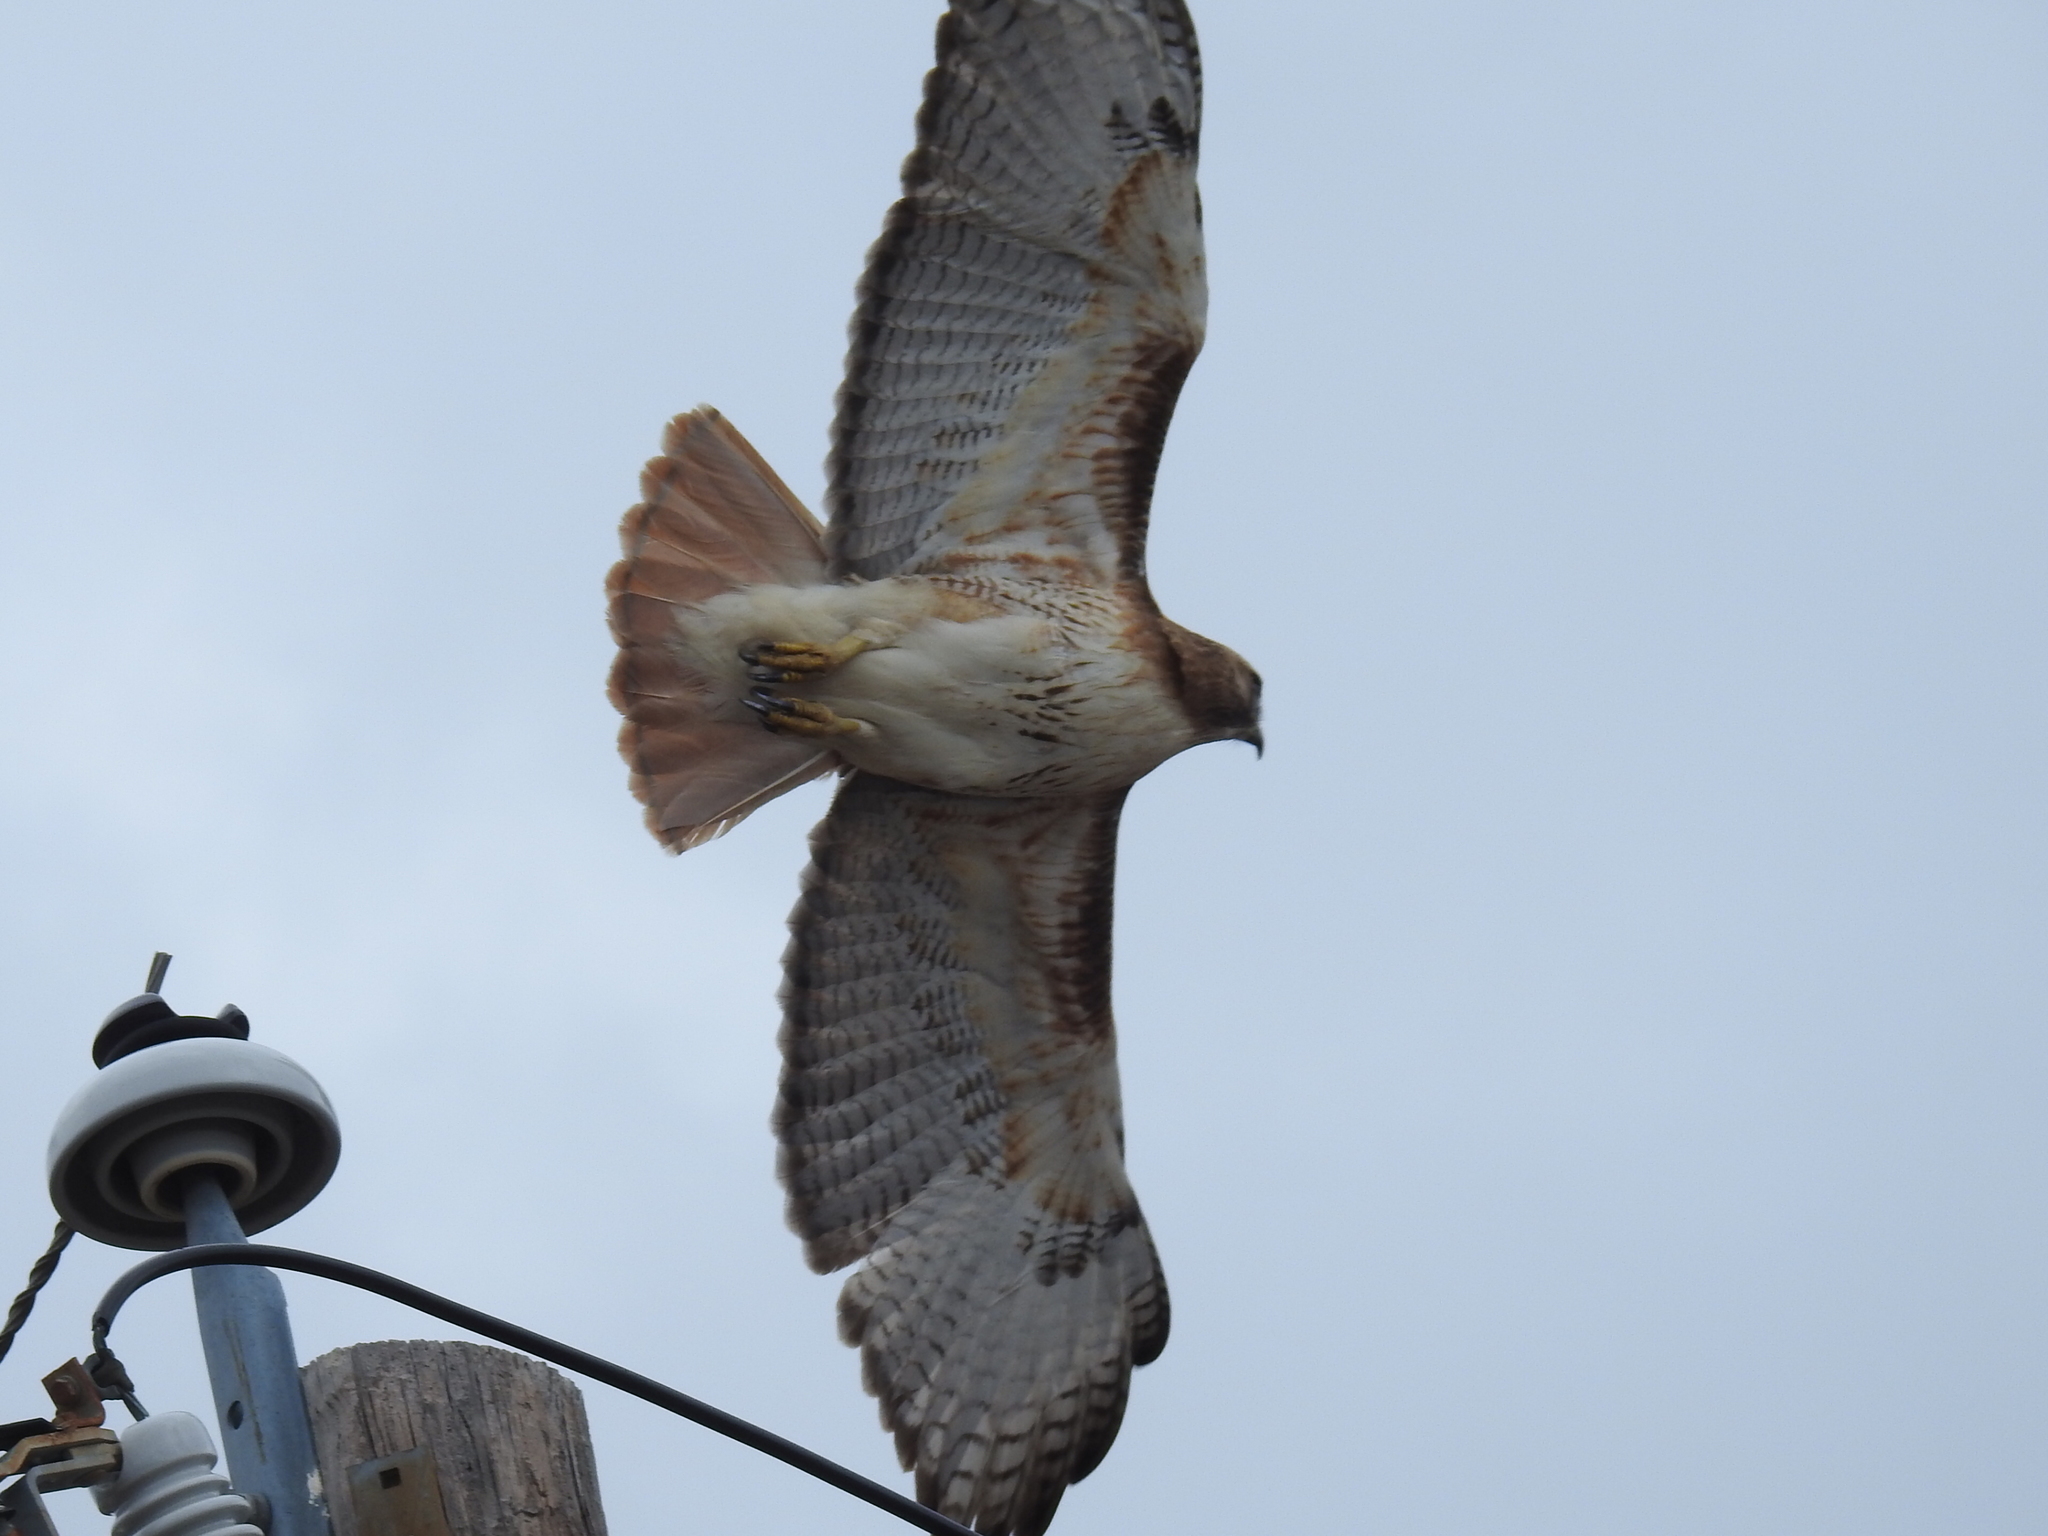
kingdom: Animalia
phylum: Chordata
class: Aves
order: Accipitriformes
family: Accipitridae
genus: Buteo
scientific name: Buteo jamaicensis
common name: Red-tailed hawk
